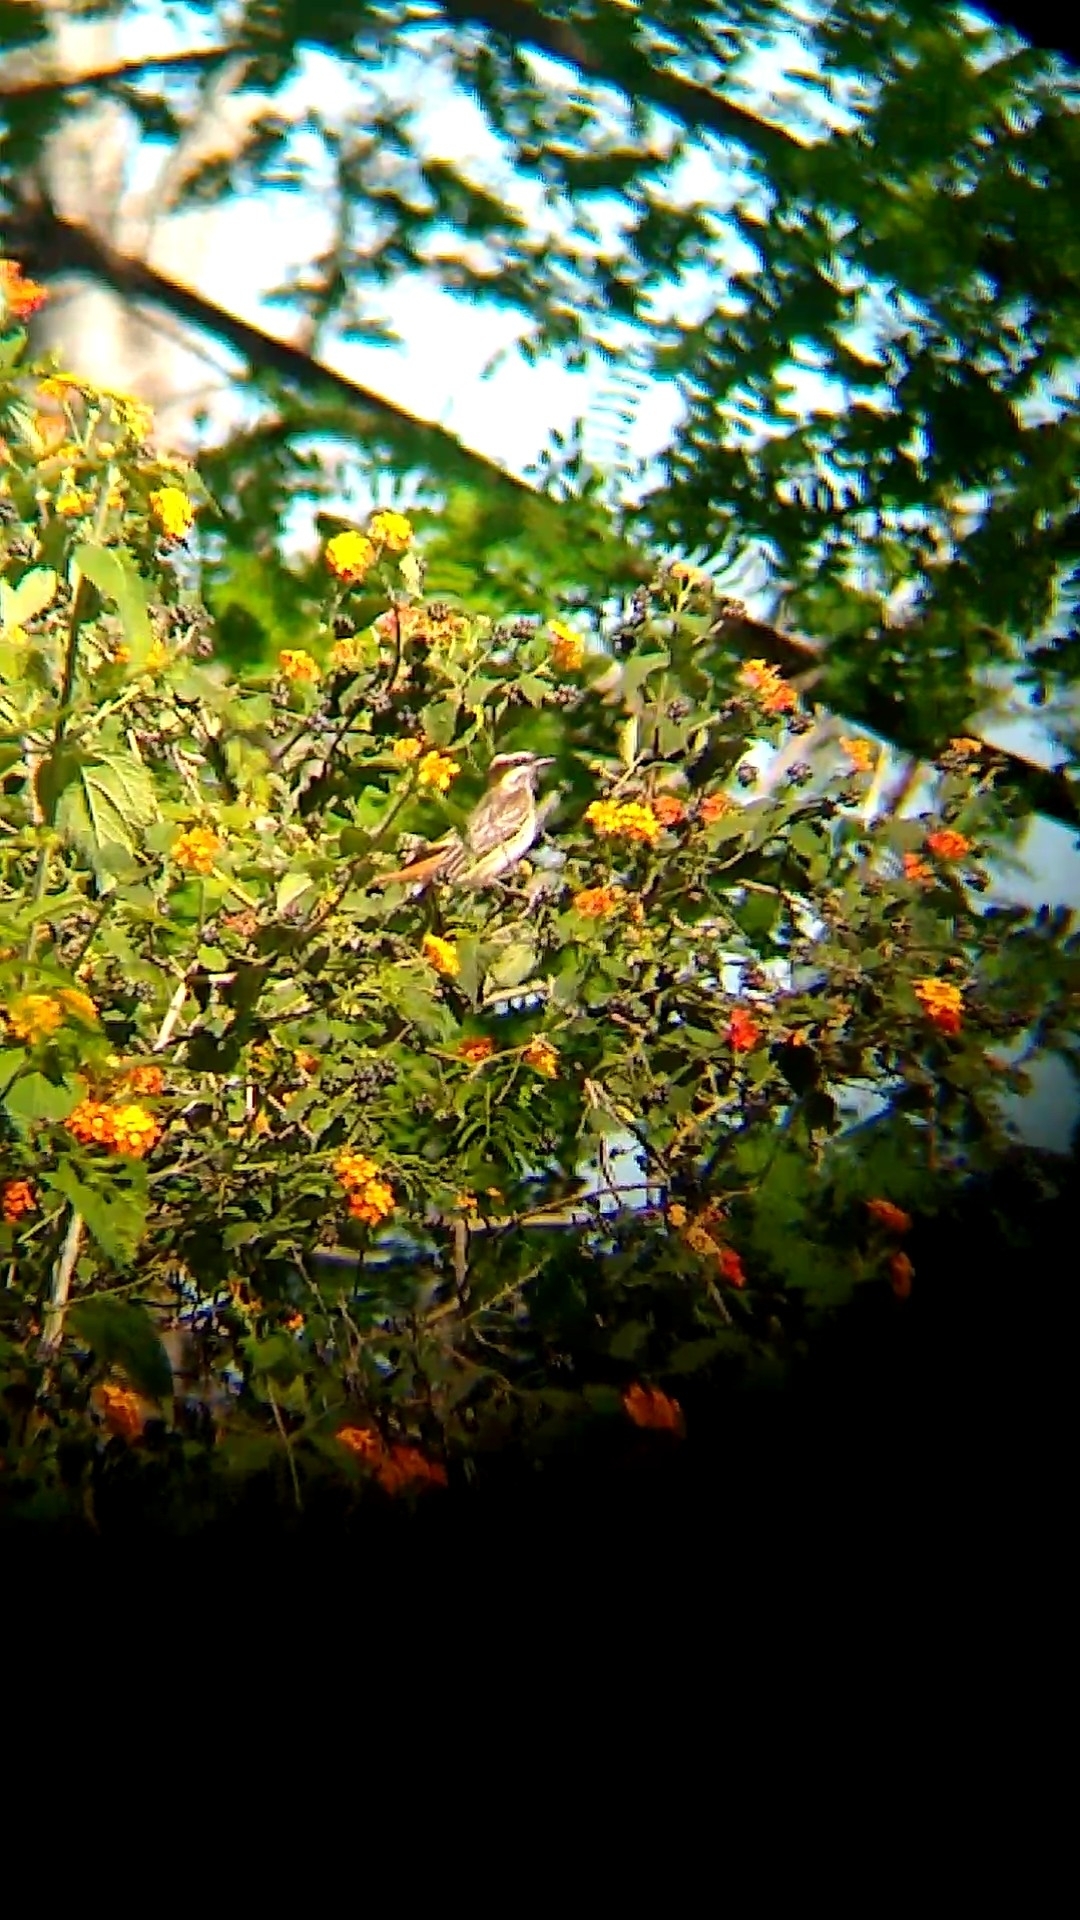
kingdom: Animalia
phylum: Chordata
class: Aves
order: Passeriformes
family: Tyrannidae
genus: Empidonomus
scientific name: Empidonomus varius
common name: Variegated flycatcher
